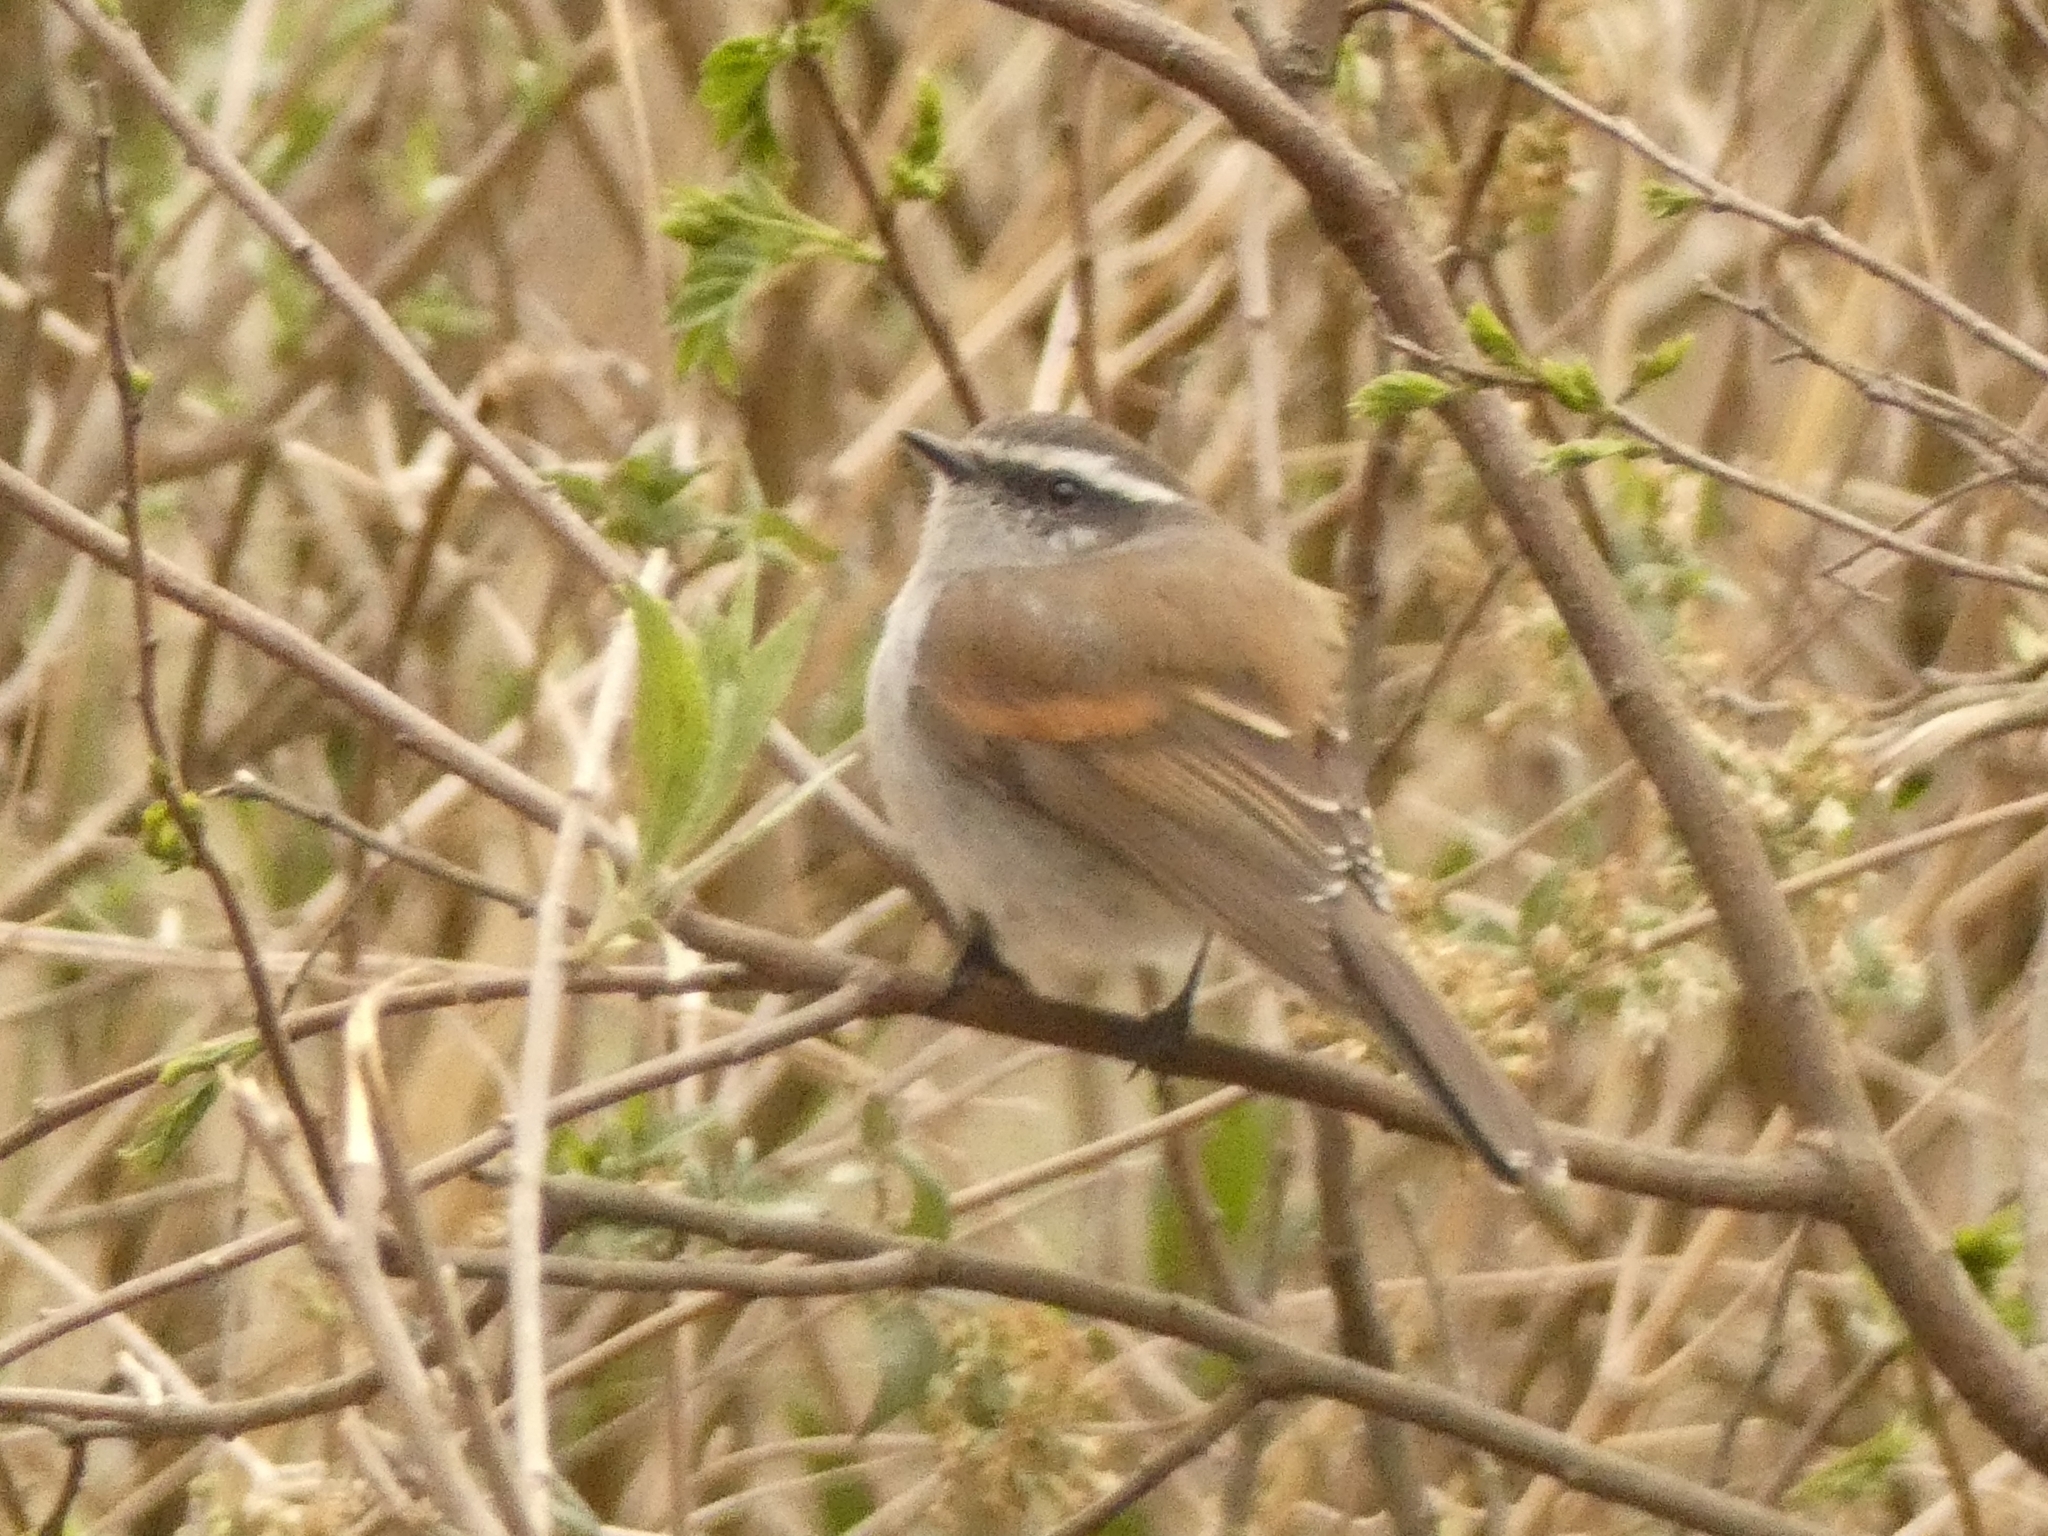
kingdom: Animalia
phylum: Chordata
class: Aves
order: Passeriformes
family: Tyrannidae
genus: Ochthoeca
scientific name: Ochthoeca leucophrys
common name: White-browed chat-tyrant
